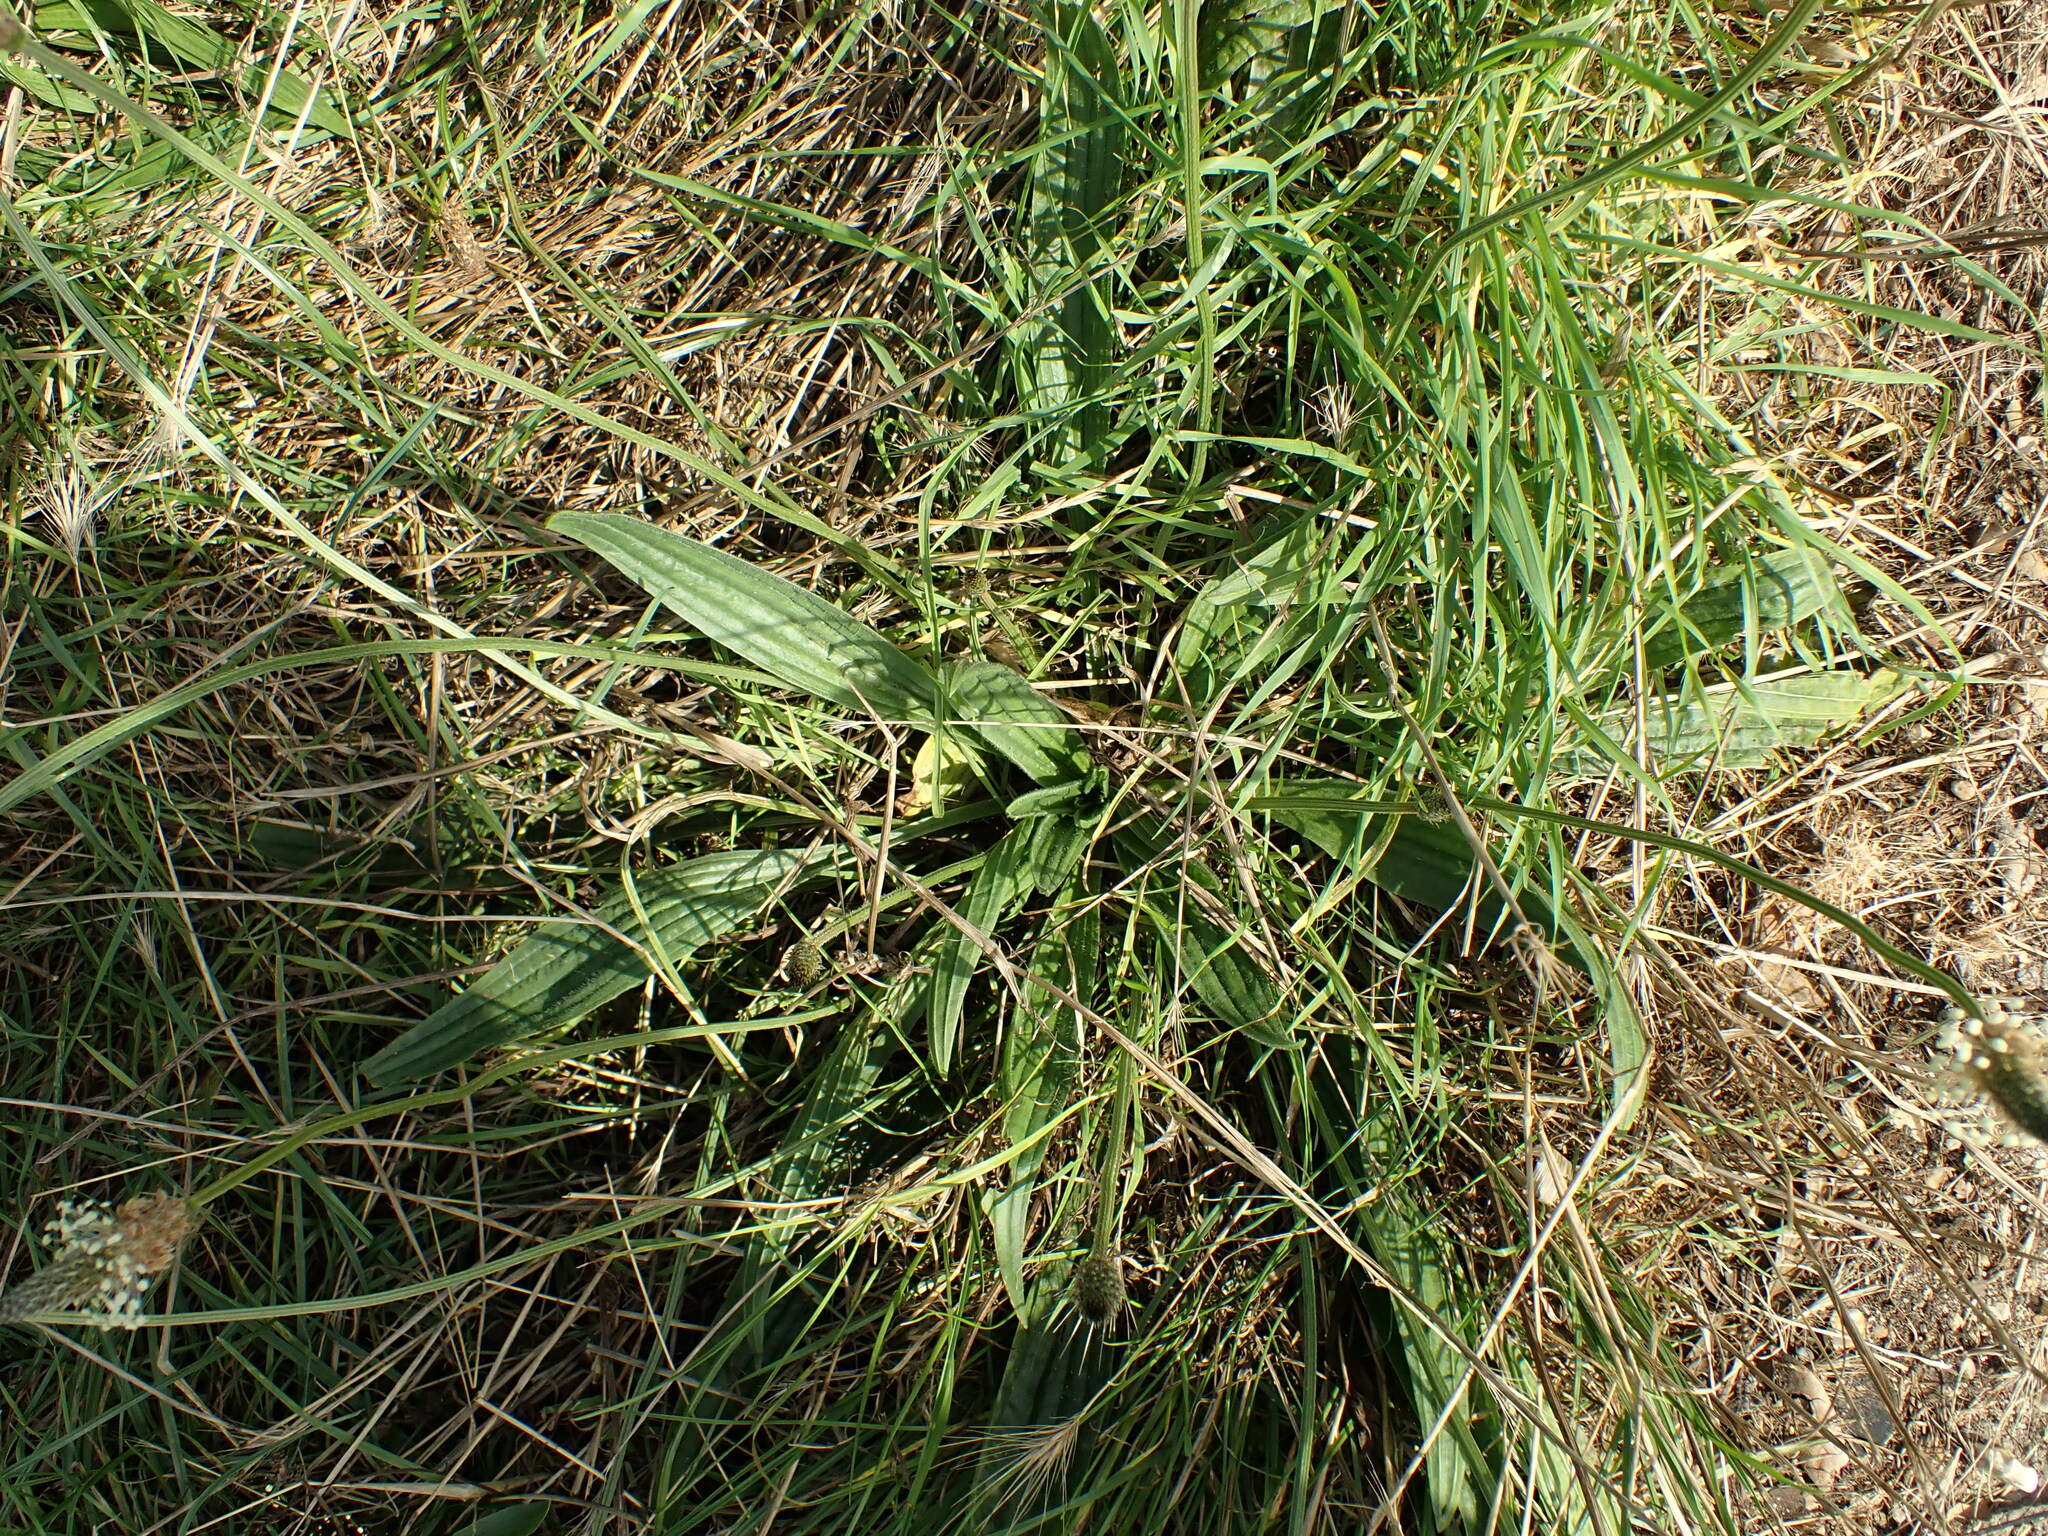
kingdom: Plantae
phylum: Tracheophyta
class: Magnoliopsida
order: Lamiales
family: Plantaginaceae
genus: Plantago
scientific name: Plantago lanceolata
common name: Ribwort plantain
